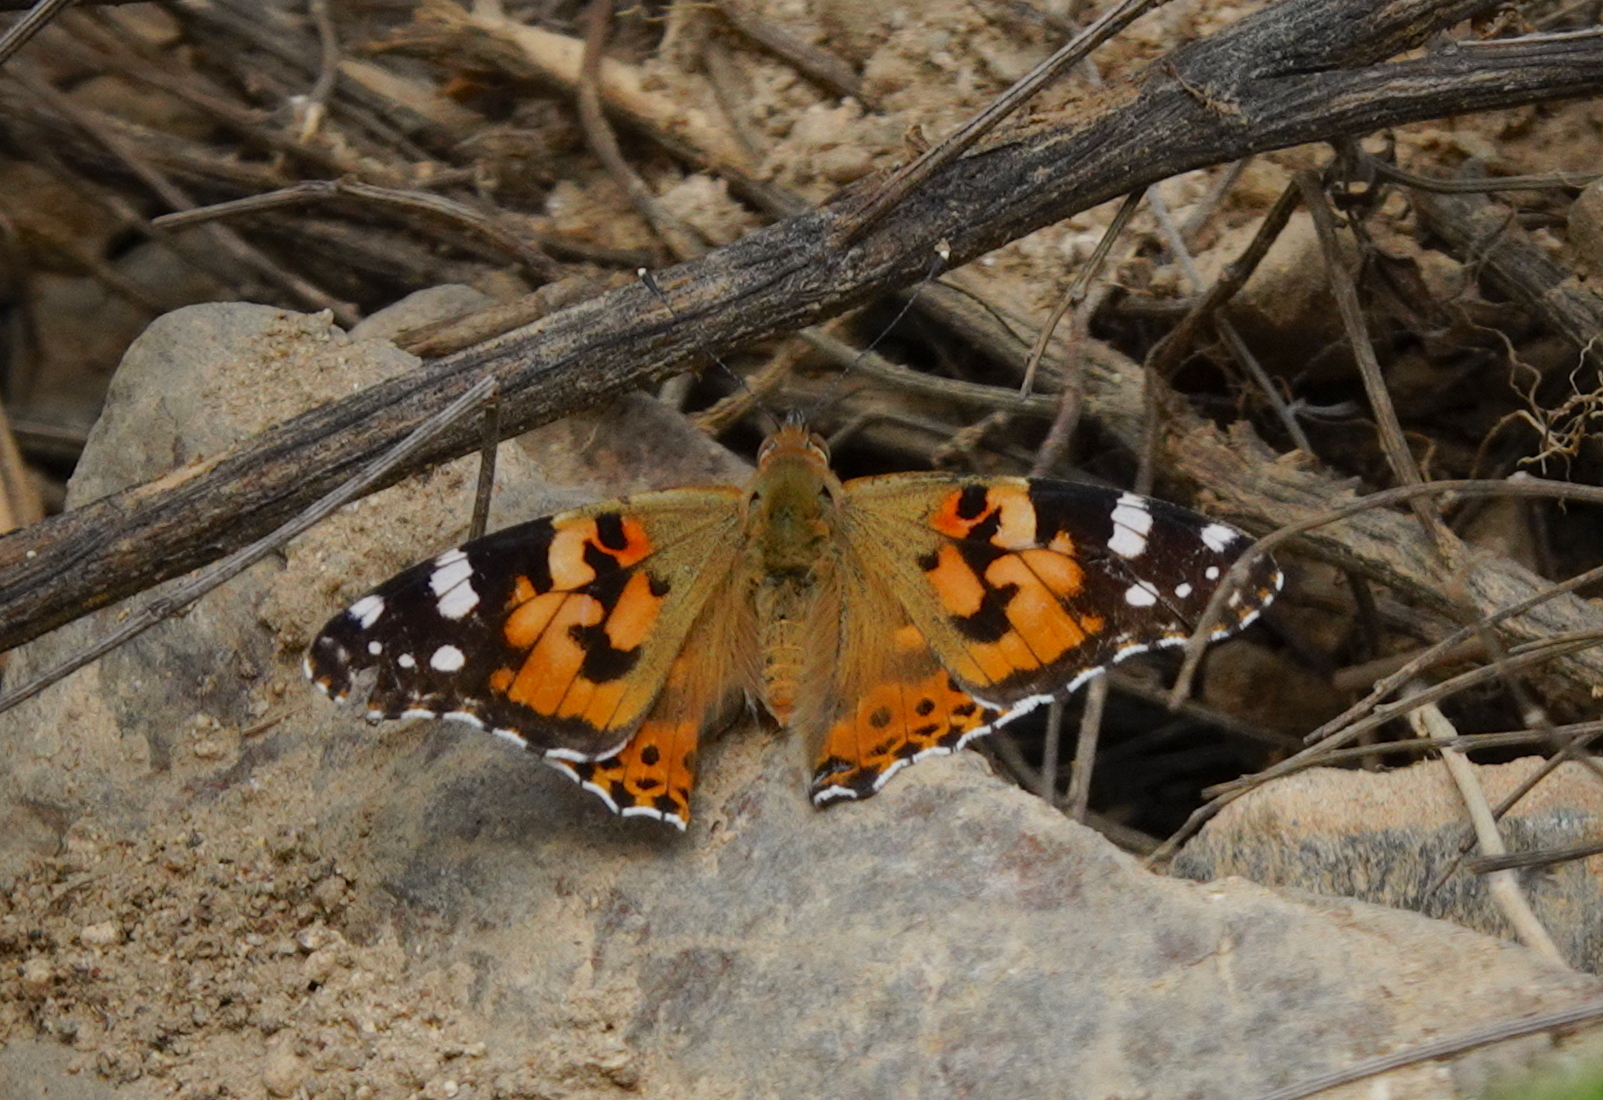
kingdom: Animalia
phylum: Arthropoda
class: Insecta
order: Lepidoptera
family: Nymphalidae
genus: Vanessa
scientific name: Vanessa cardui
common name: Painted lady
